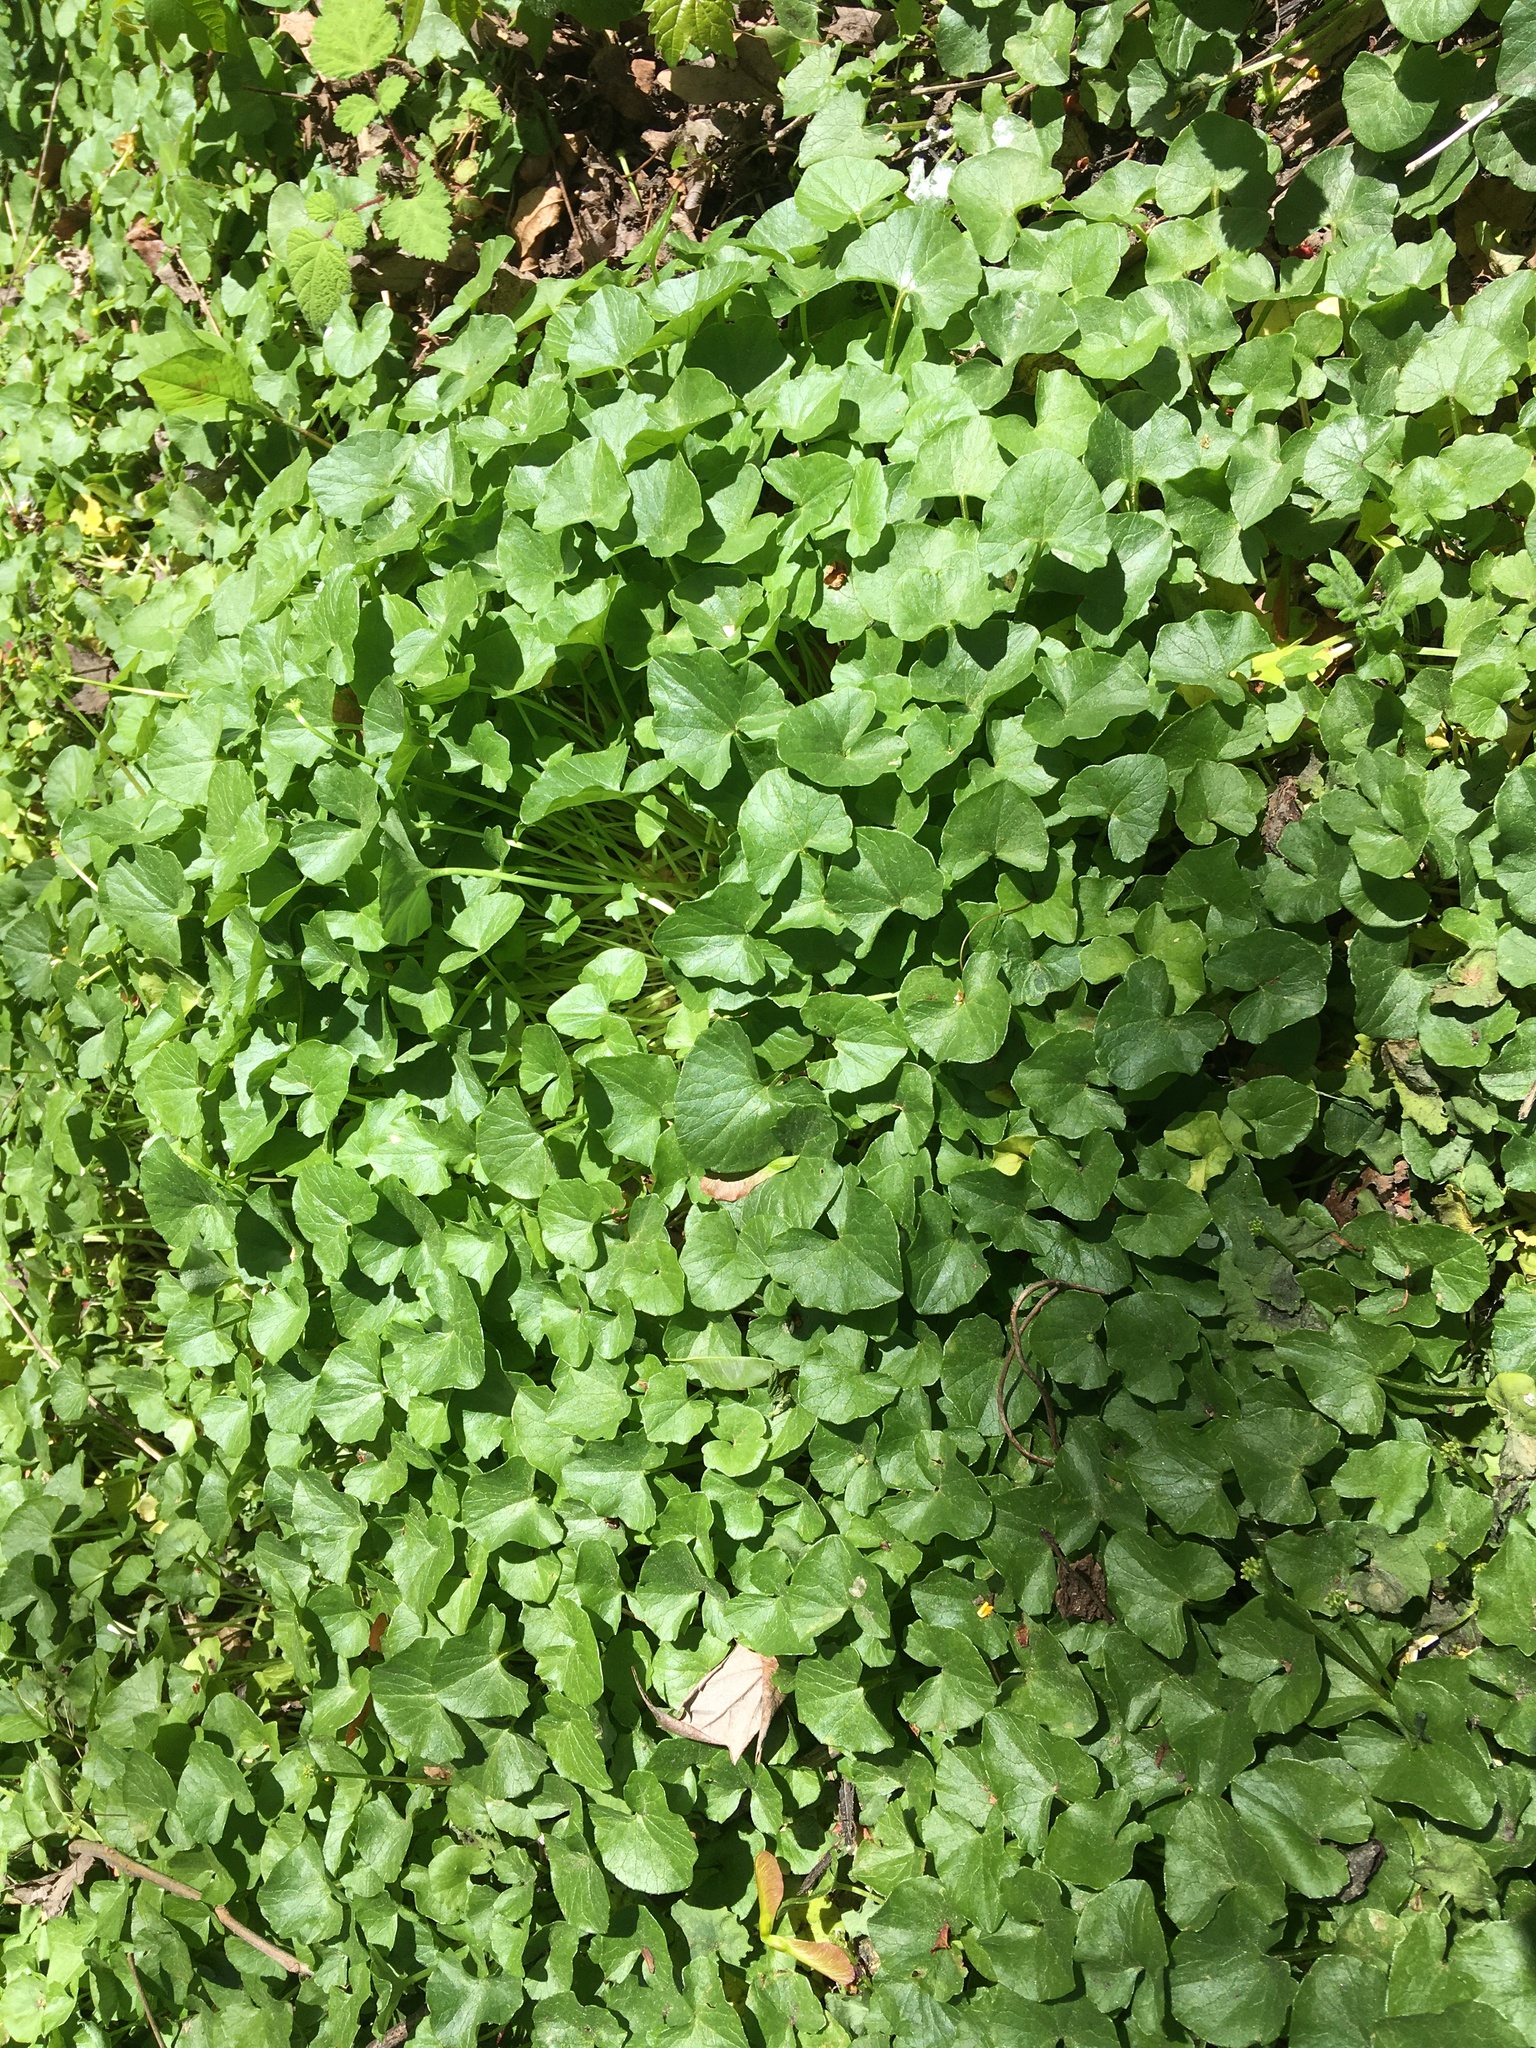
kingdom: Plantae
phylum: Tracheophyta
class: Magnoliopsida
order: Ranunculales
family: Ranunculaceae
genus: Ficaria
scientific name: Ficaria verna
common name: Lesser celandine
